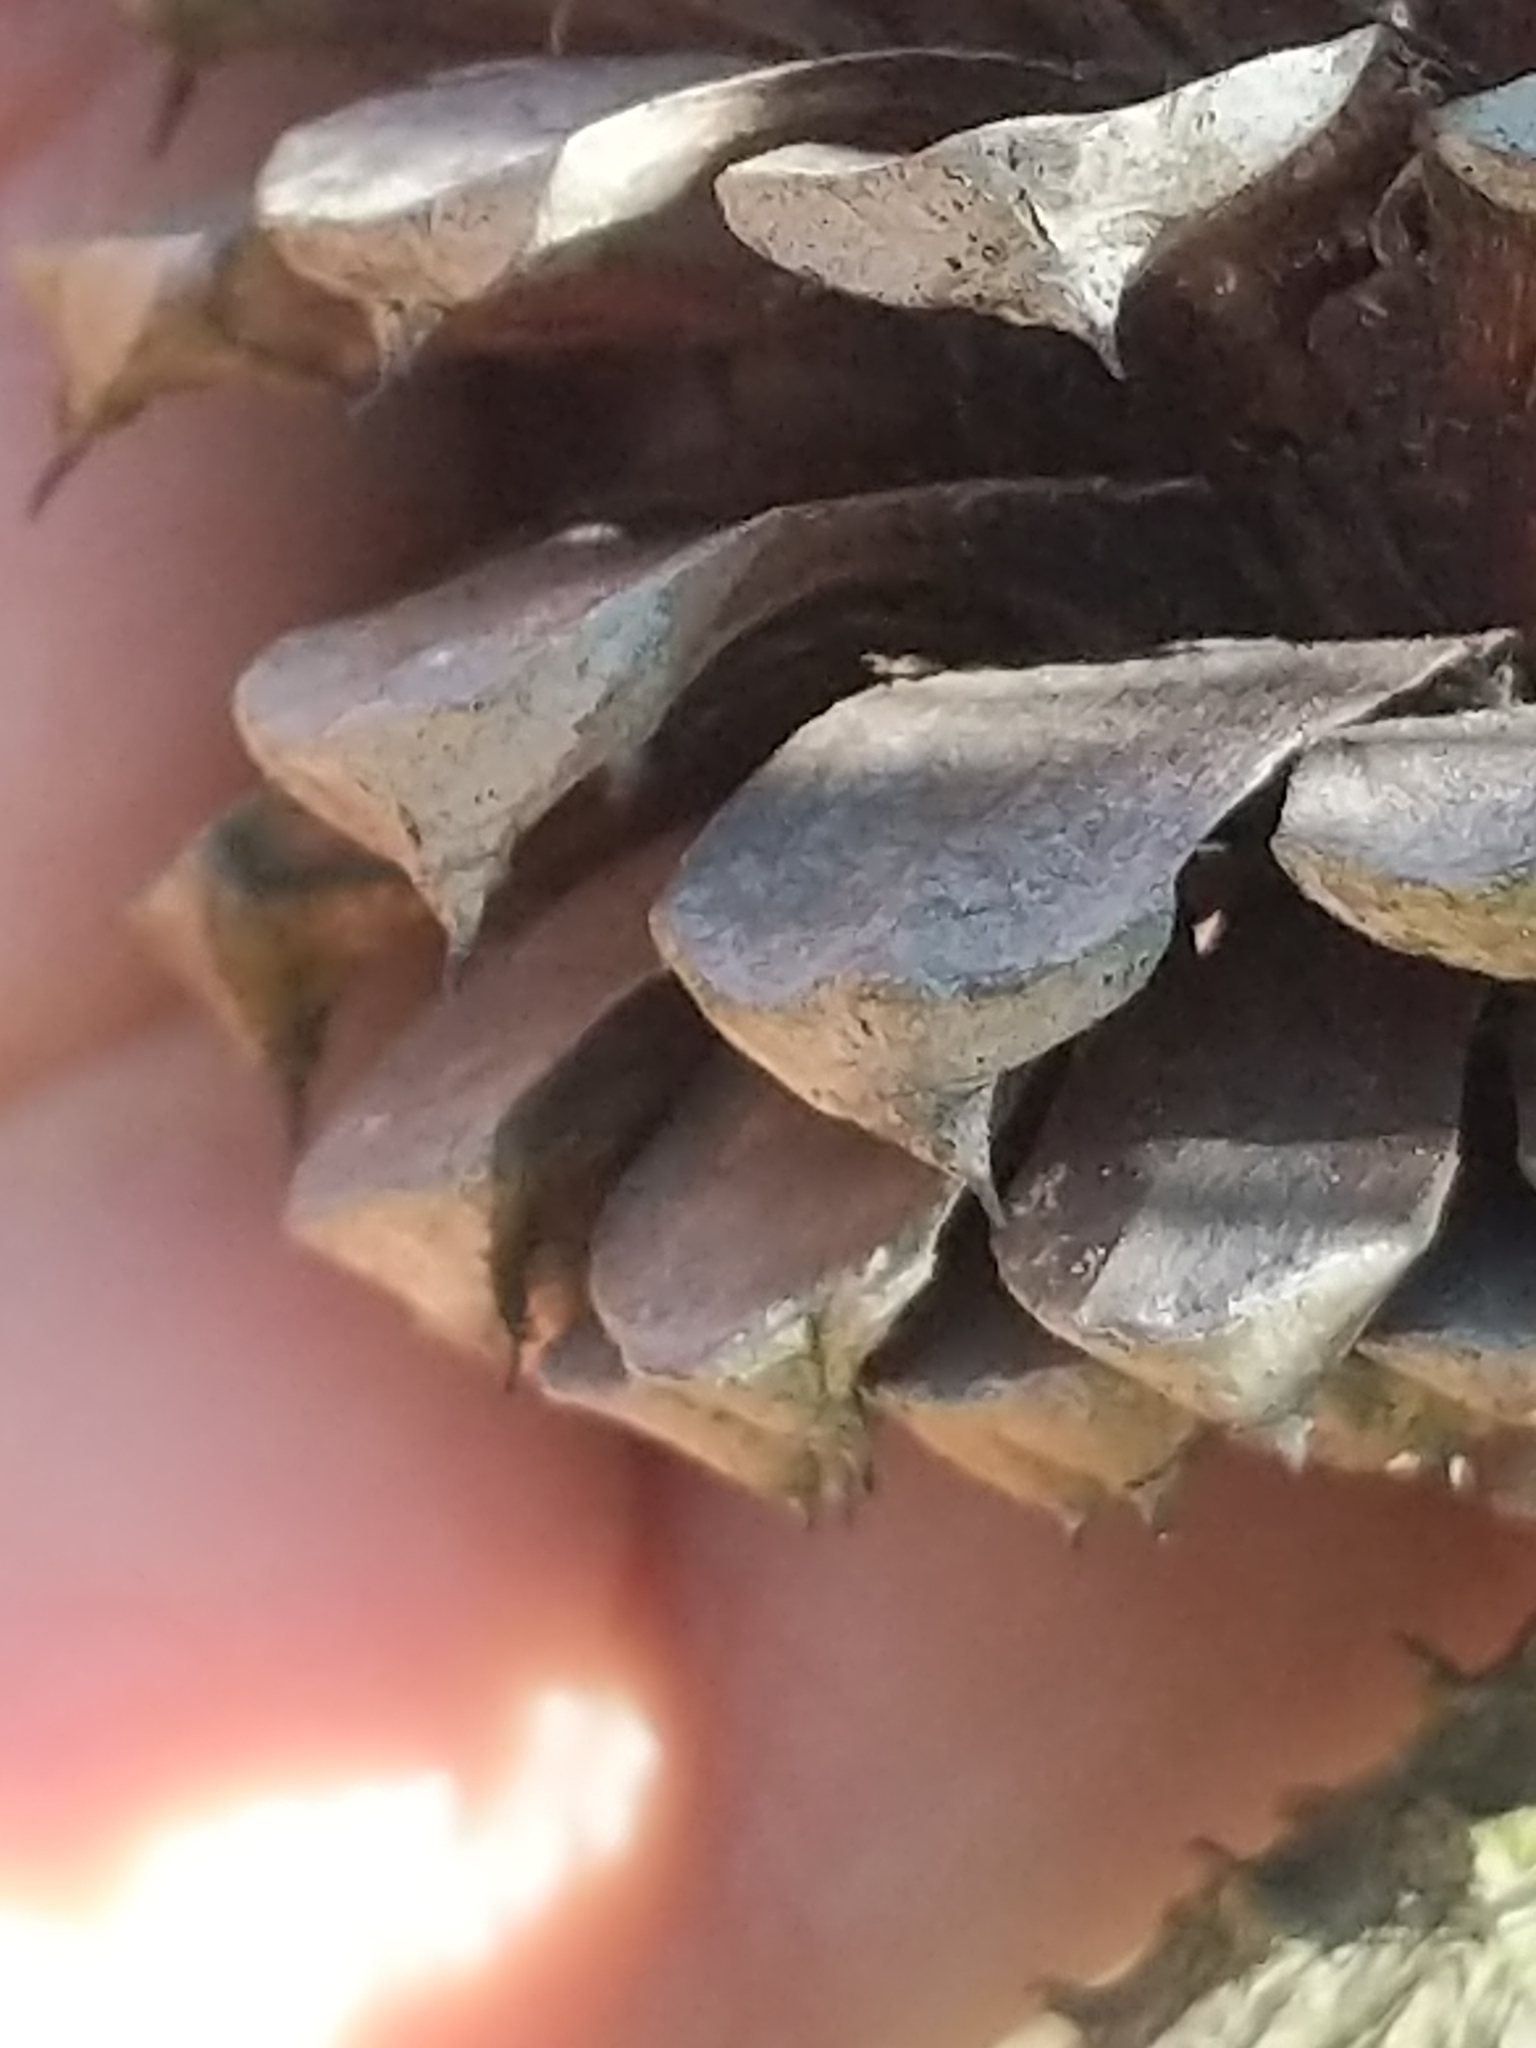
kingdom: Plantae
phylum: Tracheophyta
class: Pinopsida
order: Pinales
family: Pinaceae
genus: Pinus
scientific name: Pinus rigida
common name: Pitch pine
